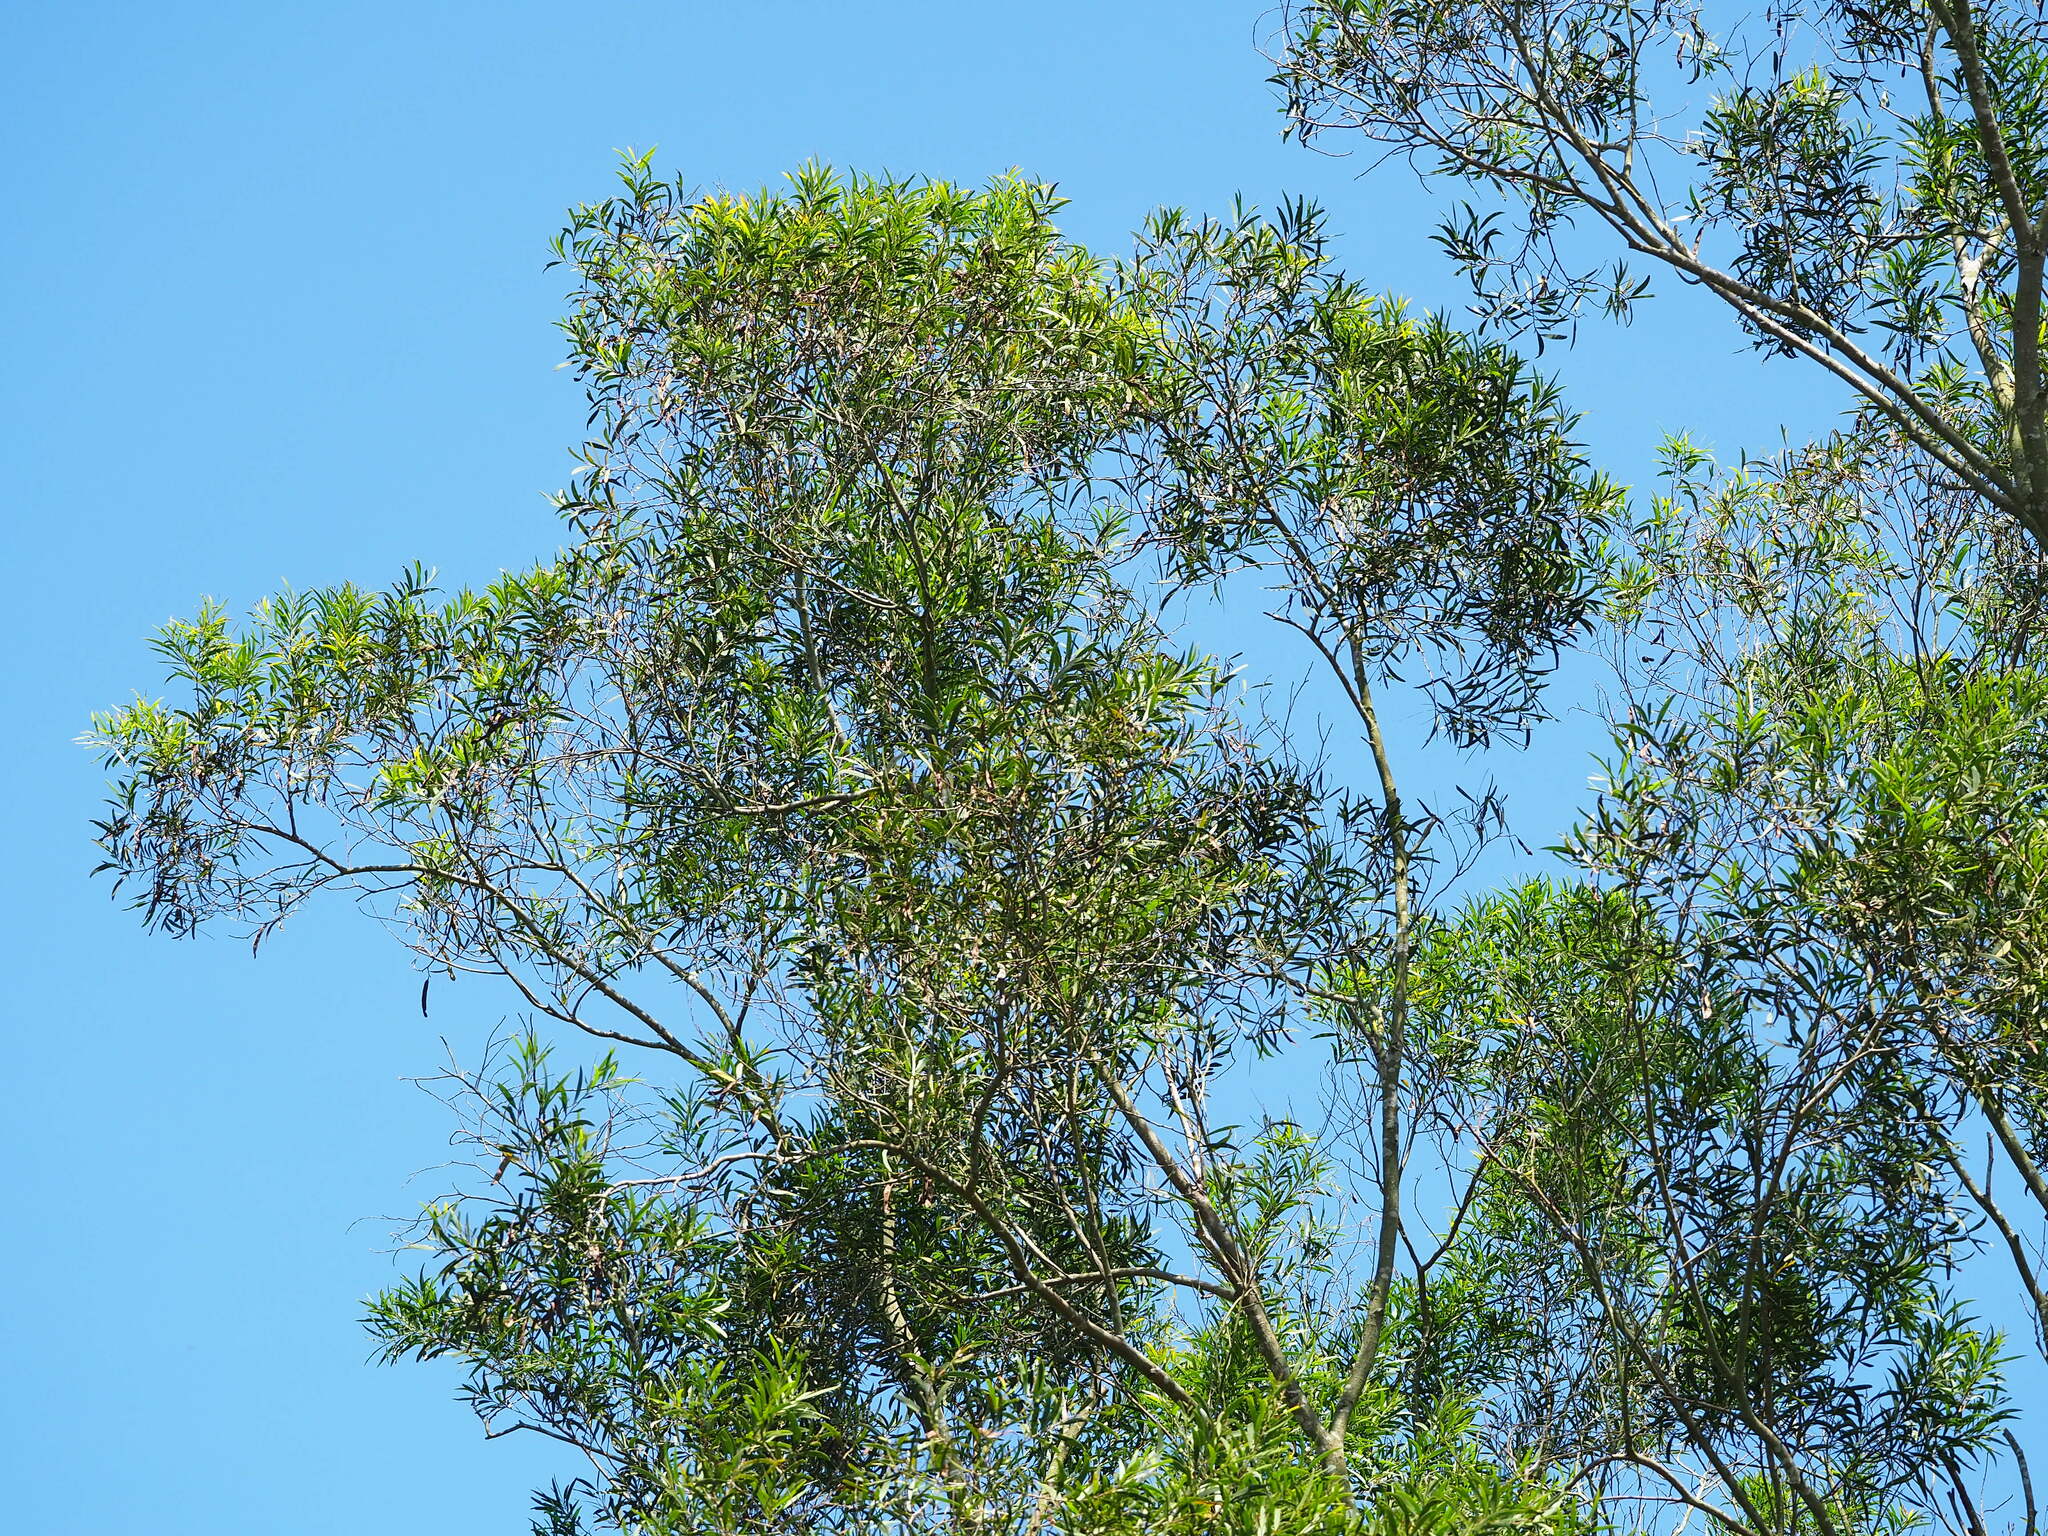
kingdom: Plantae
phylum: Tracheophyta
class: Magnoliopsida
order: Fabales
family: Fabaceae
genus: Acacia
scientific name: Acacia confusa
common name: Formosan koa
